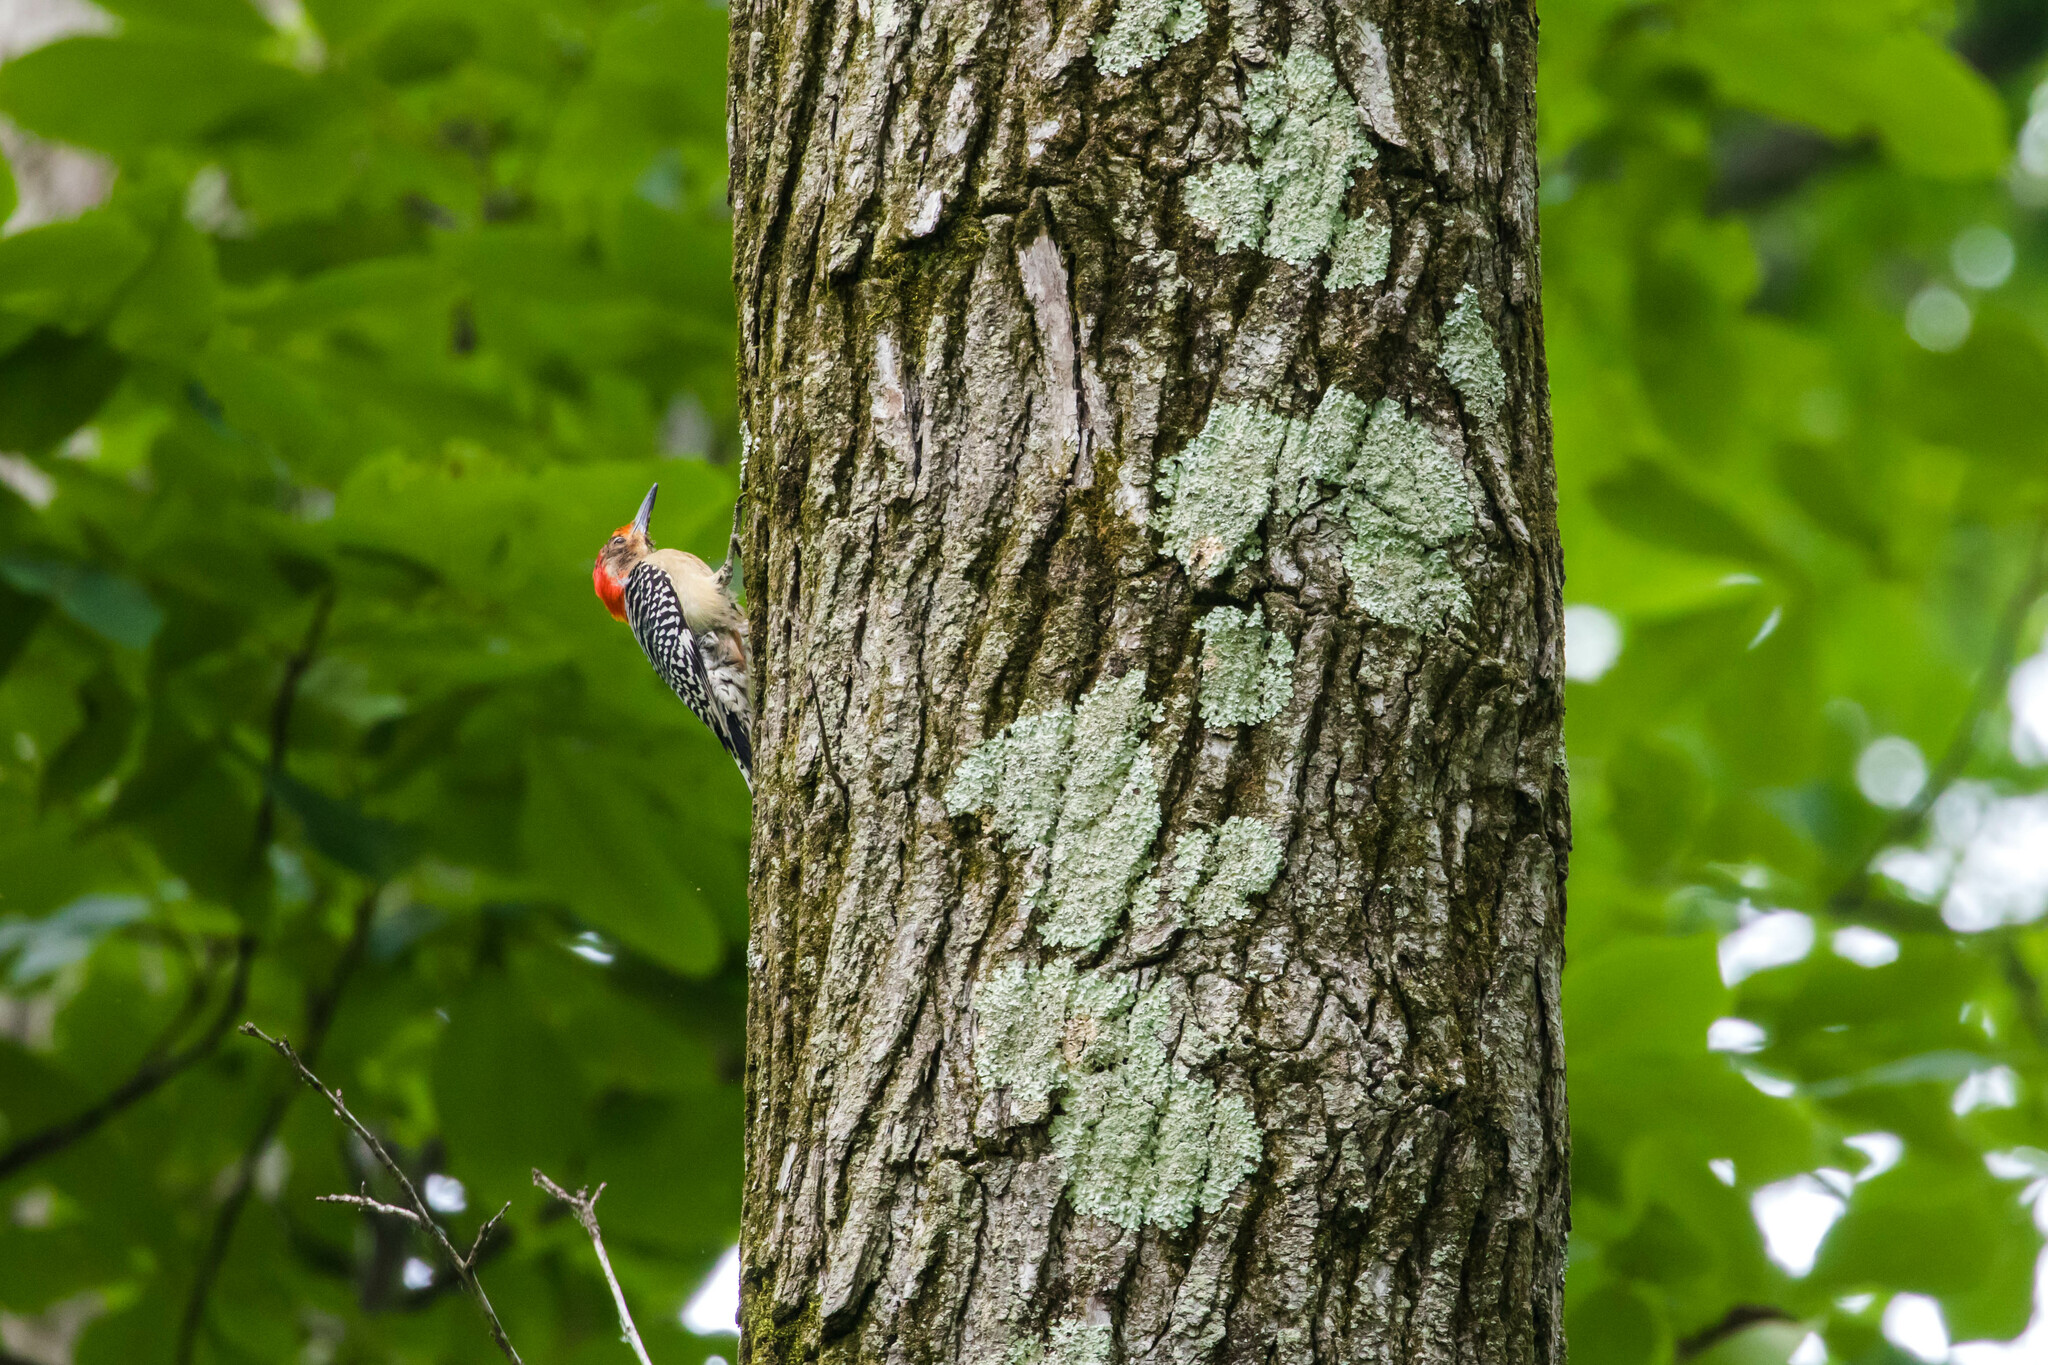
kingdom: Animalia
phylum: Chordata
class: Aves
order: Piciformes
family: Picidae
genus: Melanerpes
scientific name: Melanerpes carolinus
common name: Red-bellied woodpecker
